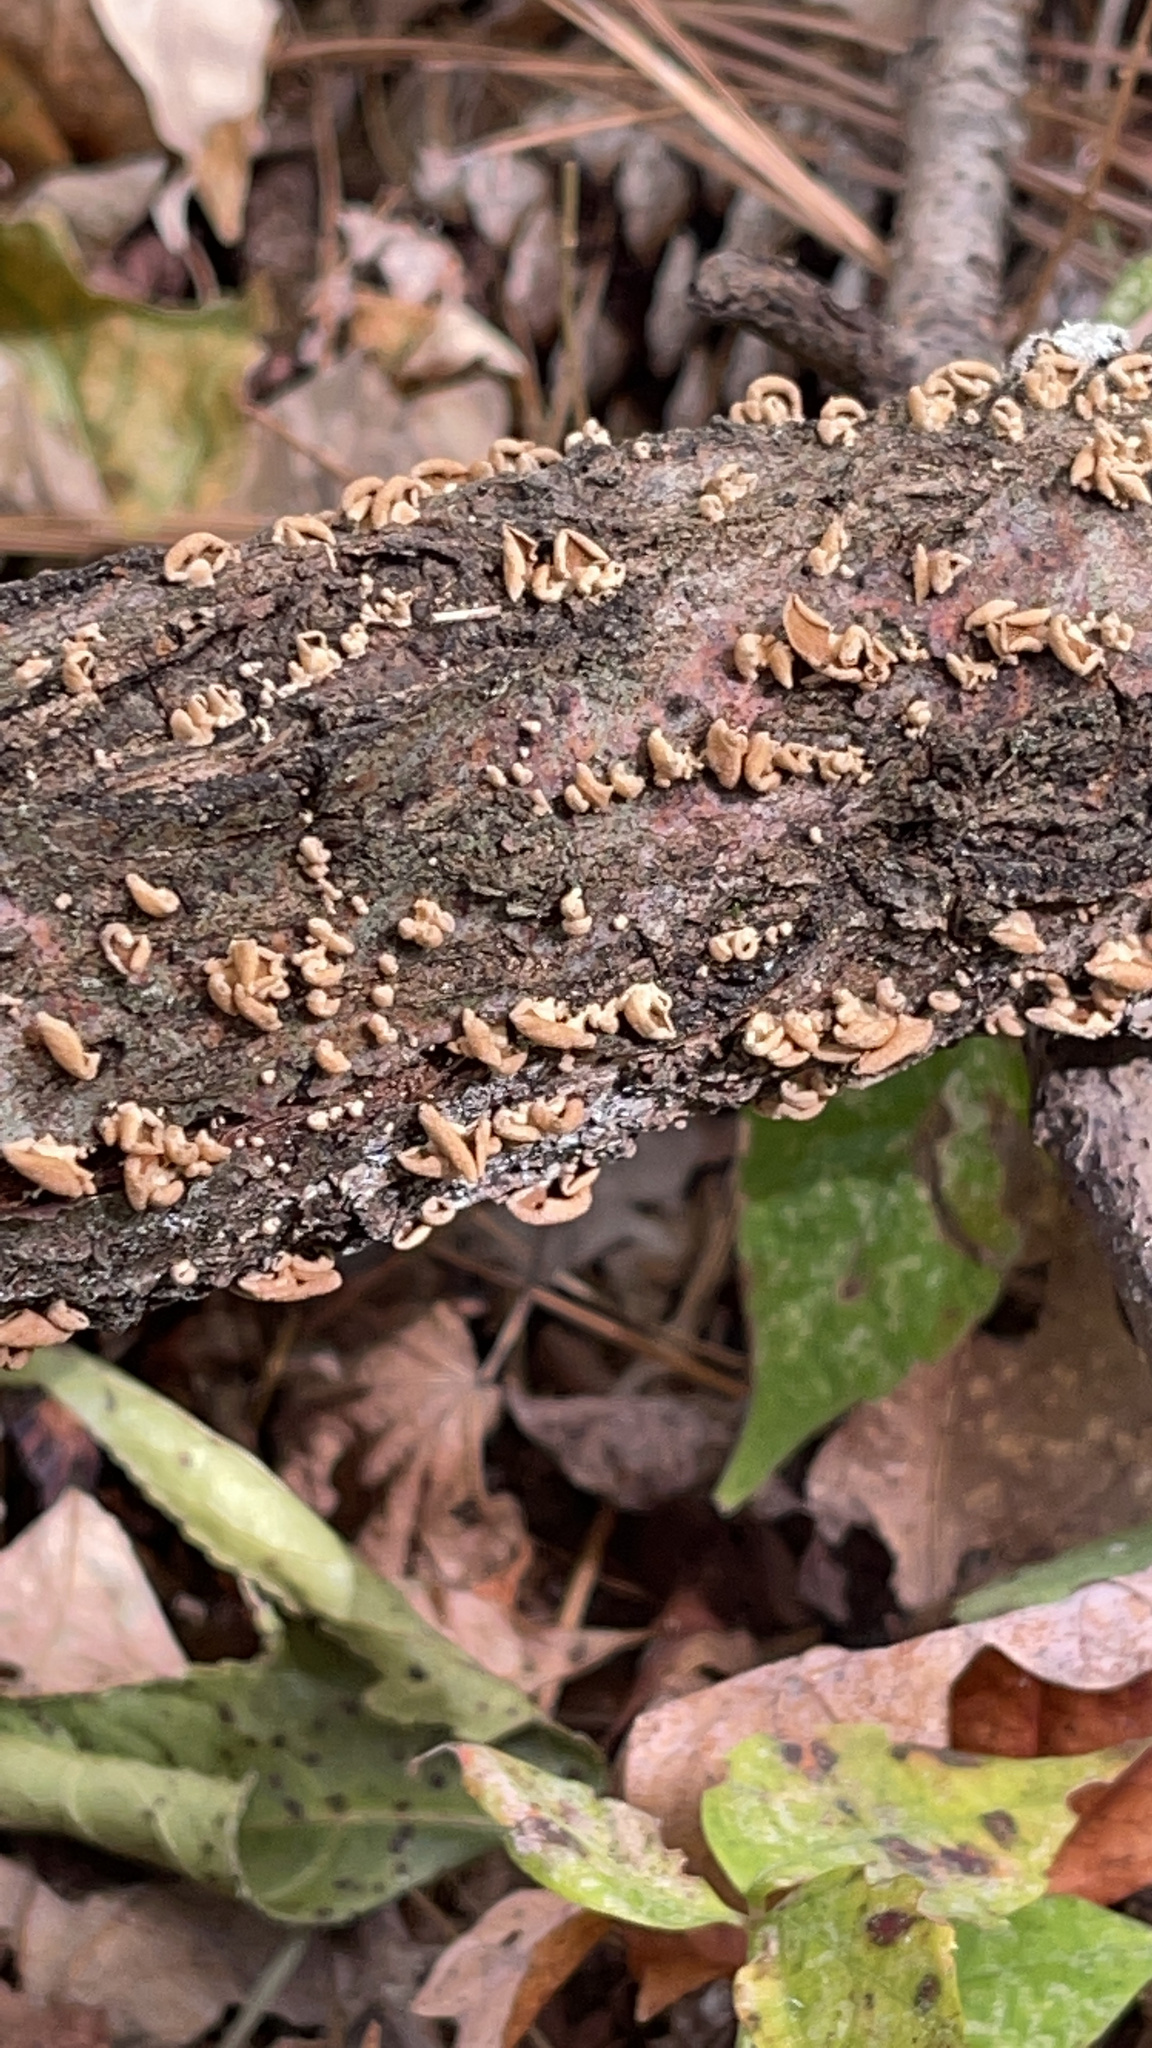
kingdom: Fungi
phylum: Basidiomycota
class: Agaricomycetes
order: Agaricales
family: Mycenaceae
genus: Panellus
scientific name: Panellus stipticus
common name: Bitter oysterling
